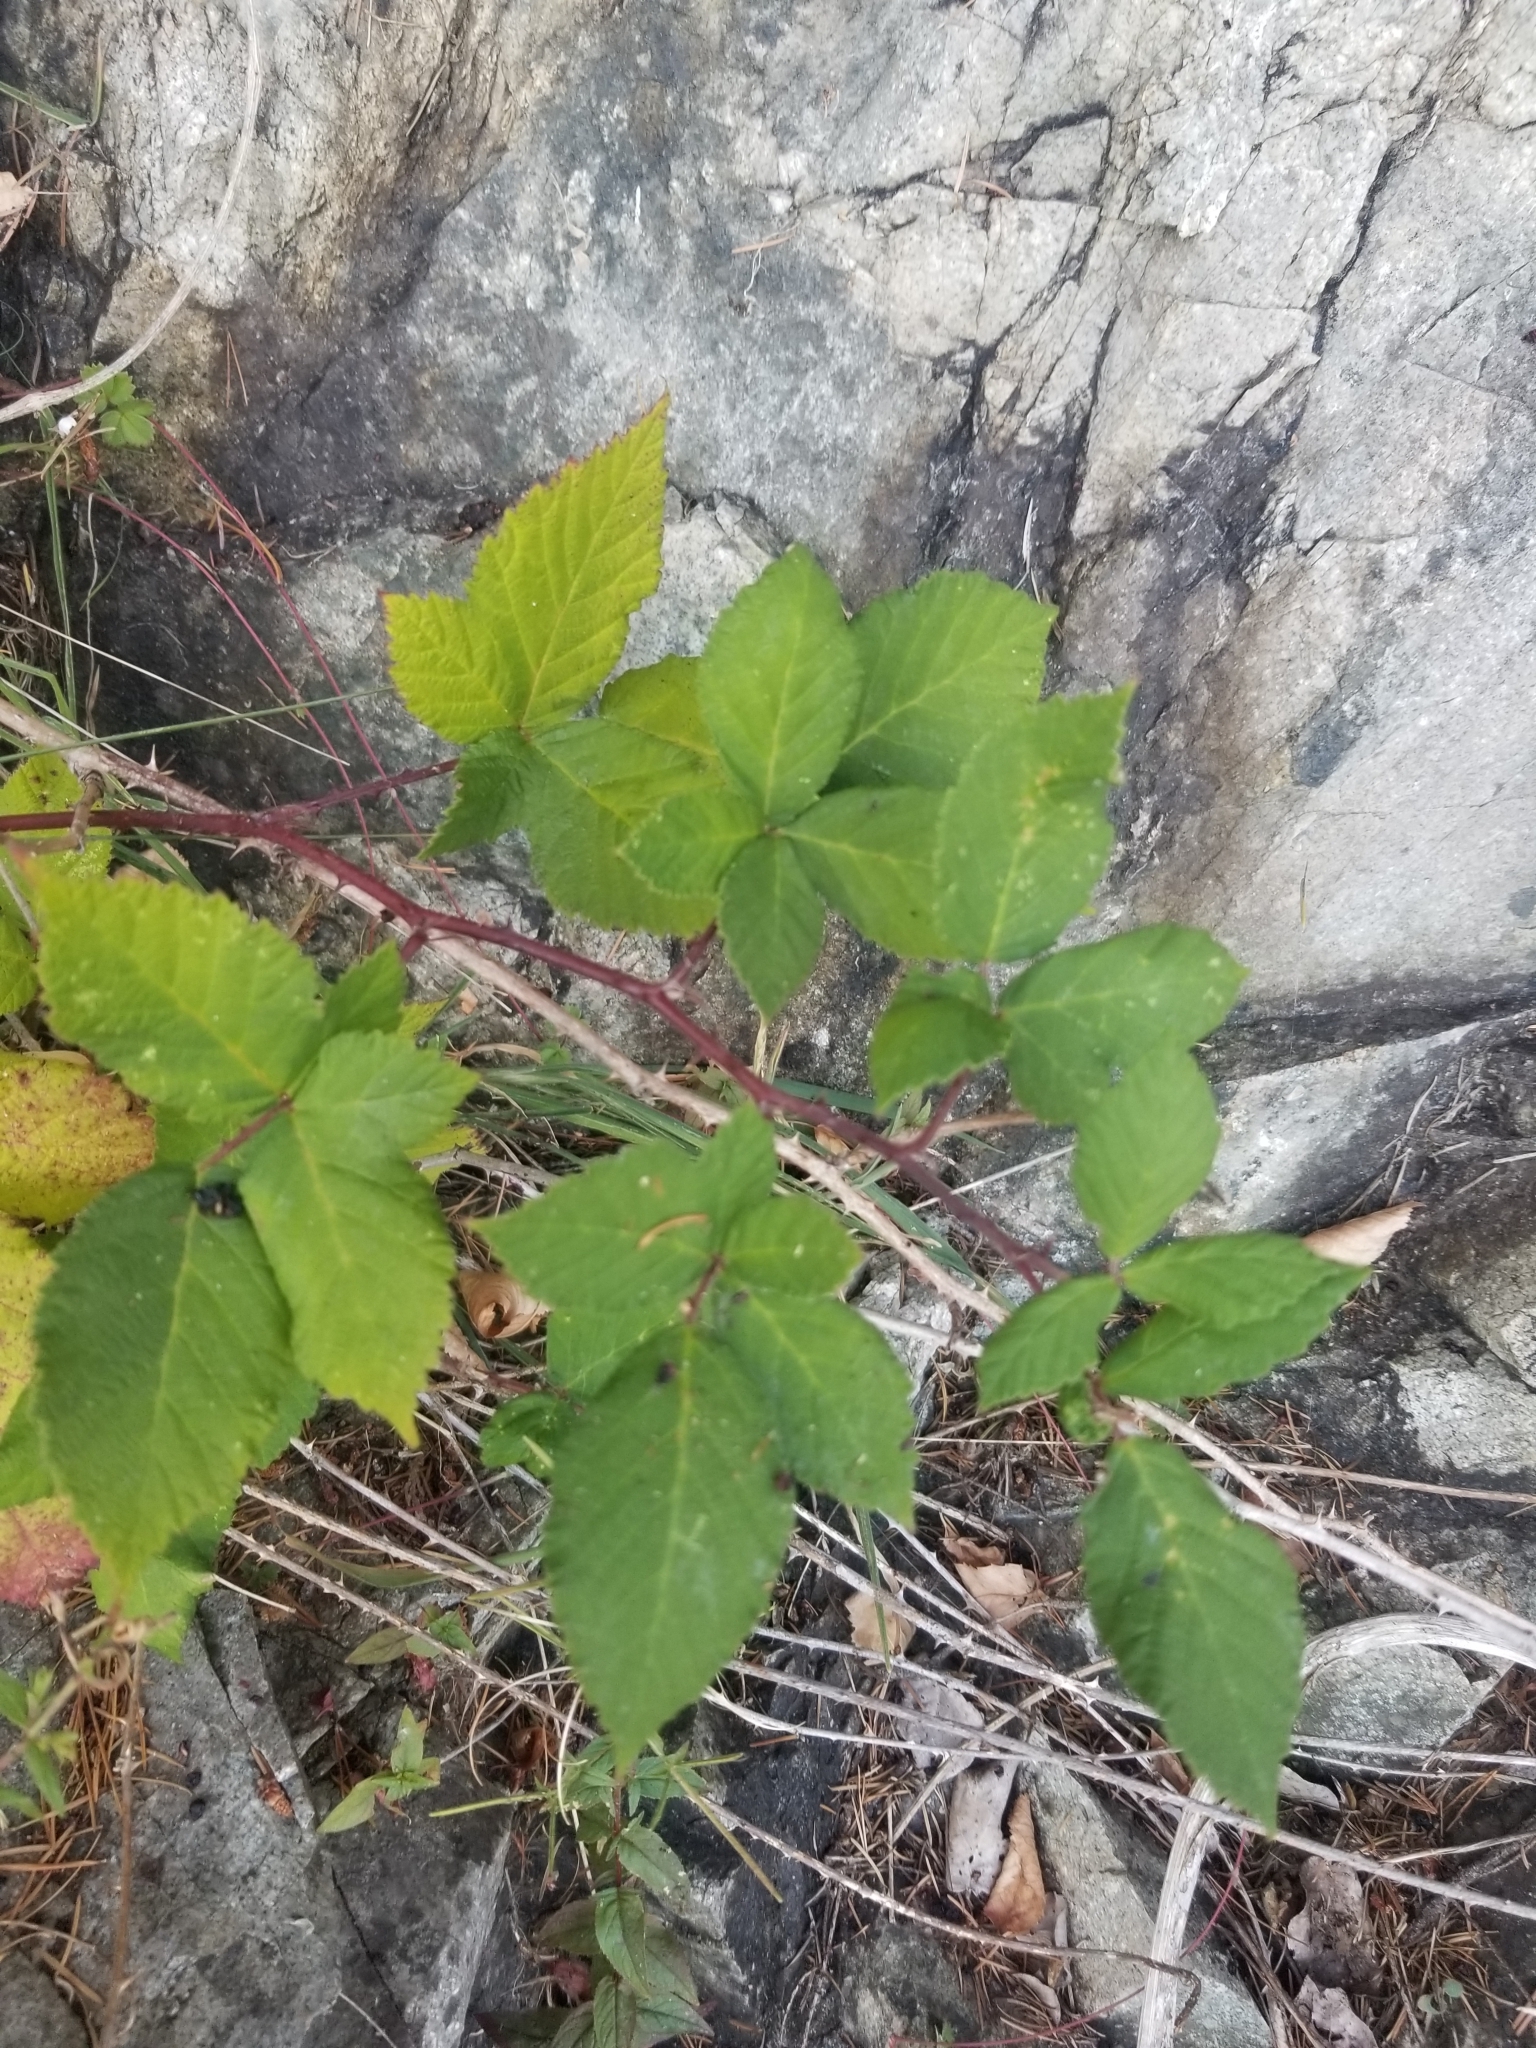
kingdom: Plantae
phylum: Tracheophyta
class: Magnoliopsida
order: Rosales
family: Rosaceae
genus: Rubus
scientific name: Rubus bifrons
